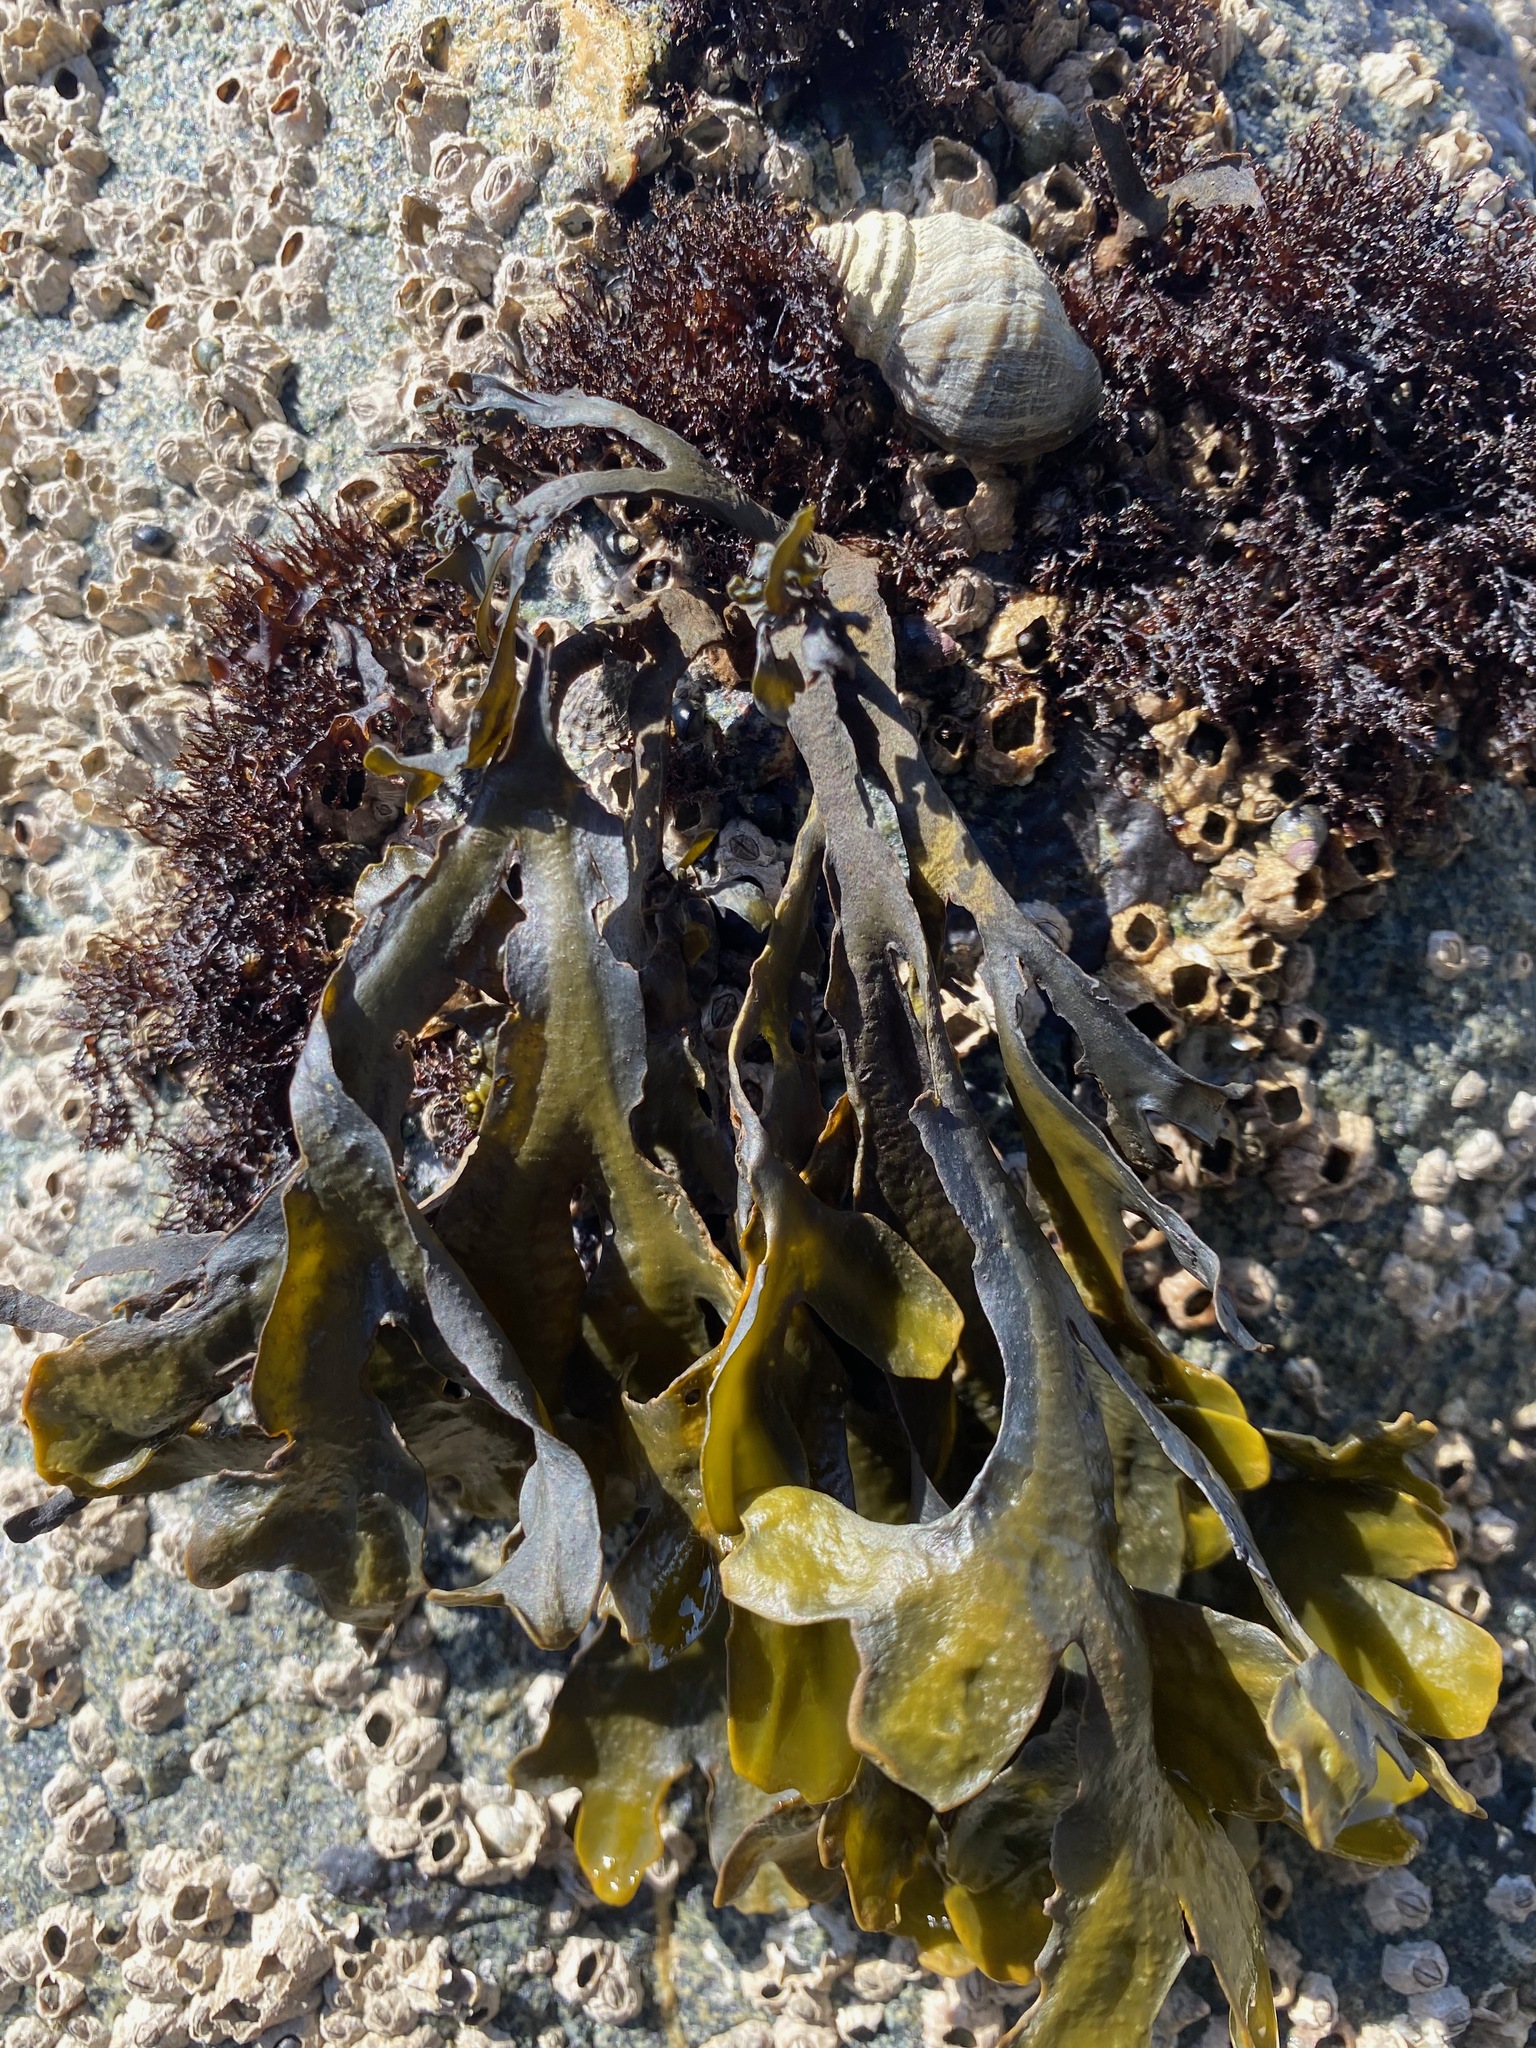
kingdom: Chromista
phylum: Ochrophyta
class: Phaeophyceae
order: Fucales
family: Fucaceae
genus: Fucus
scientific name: Fucus distichus
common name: Rockweed
